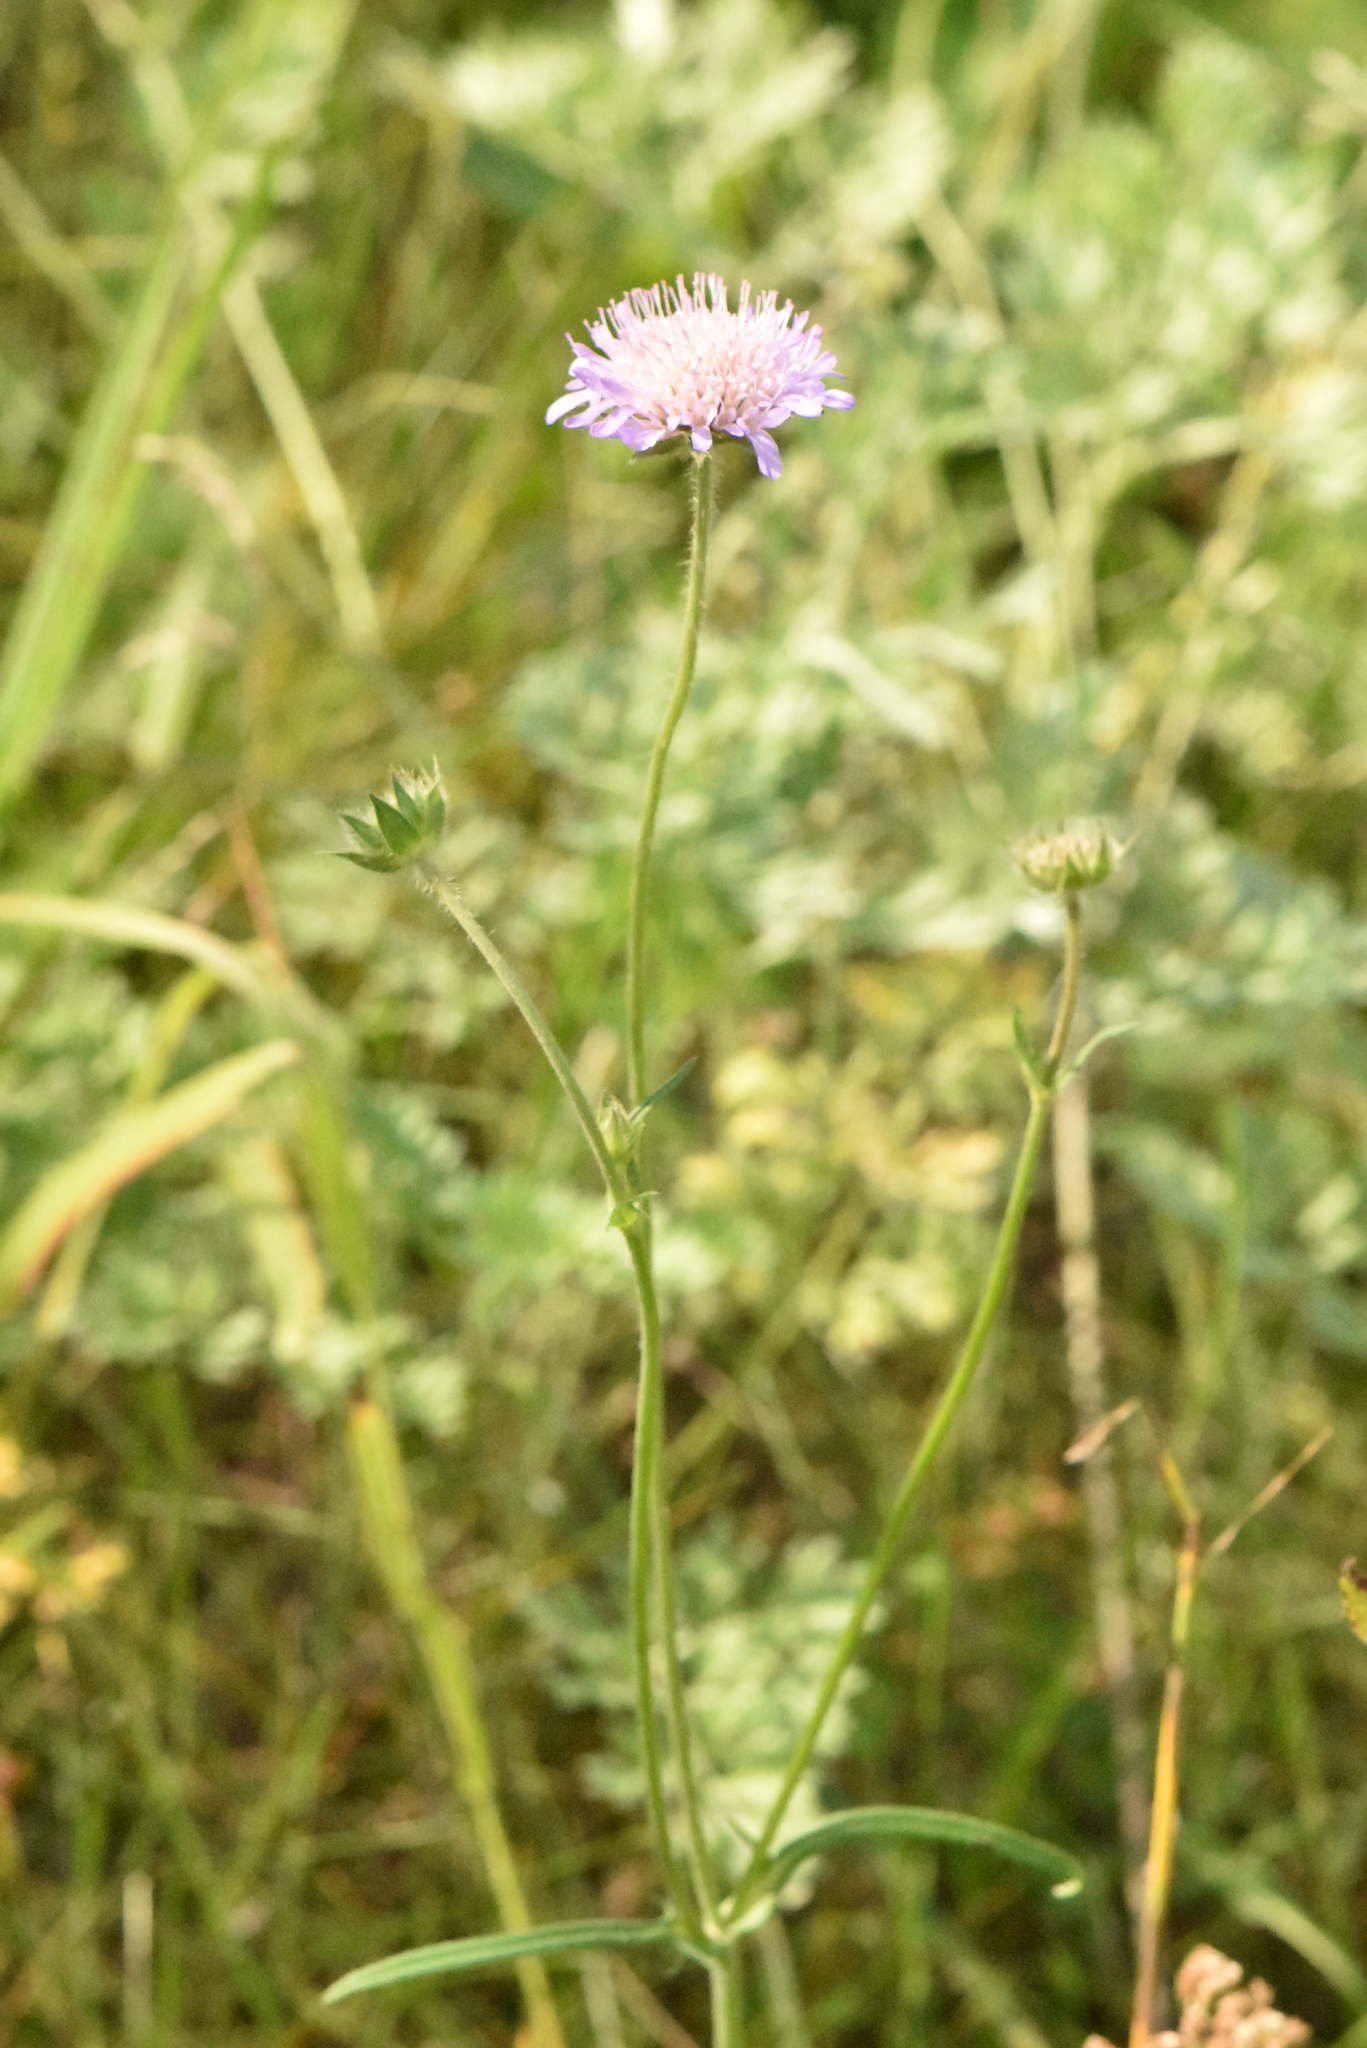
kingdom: Plantae
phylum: Tracheophyta
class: Magnoliopsida
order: Dipsacales
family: Caprifoliaceae
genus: Knautia
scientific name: Knautia arvensis
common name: Field scabiosa
